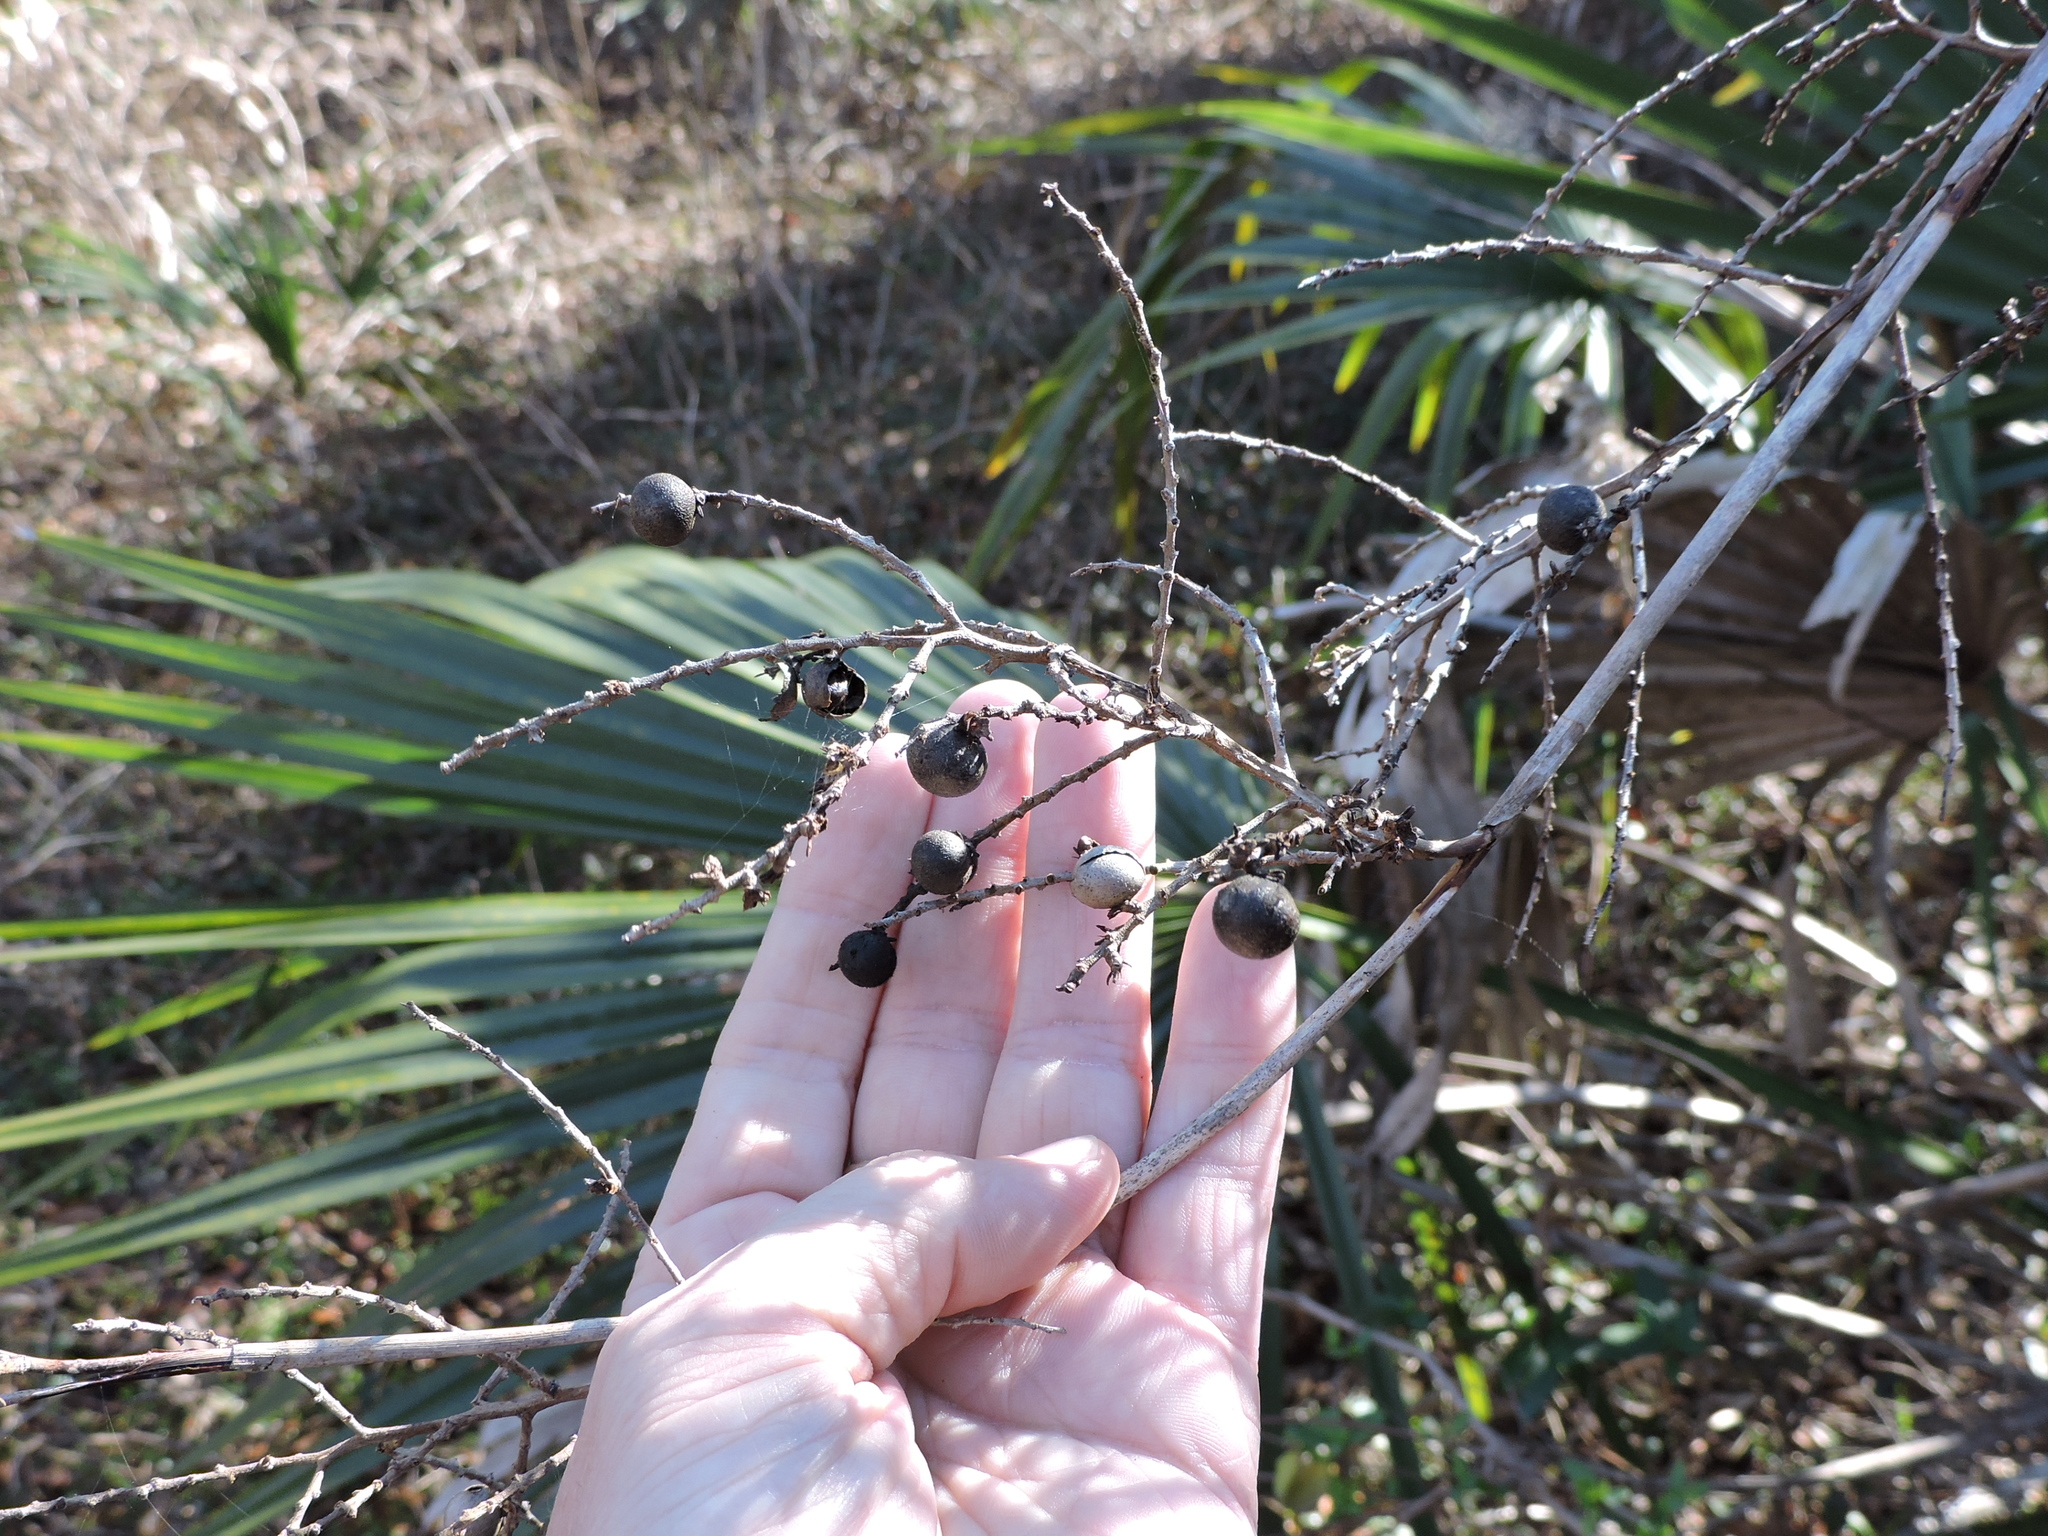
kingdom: Plantae
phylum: Tracheophyta
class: Liliopsida
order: Arecales
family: Arecaceae
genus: Sabal
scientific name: Sabal minor
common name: Dwarf palmetto
